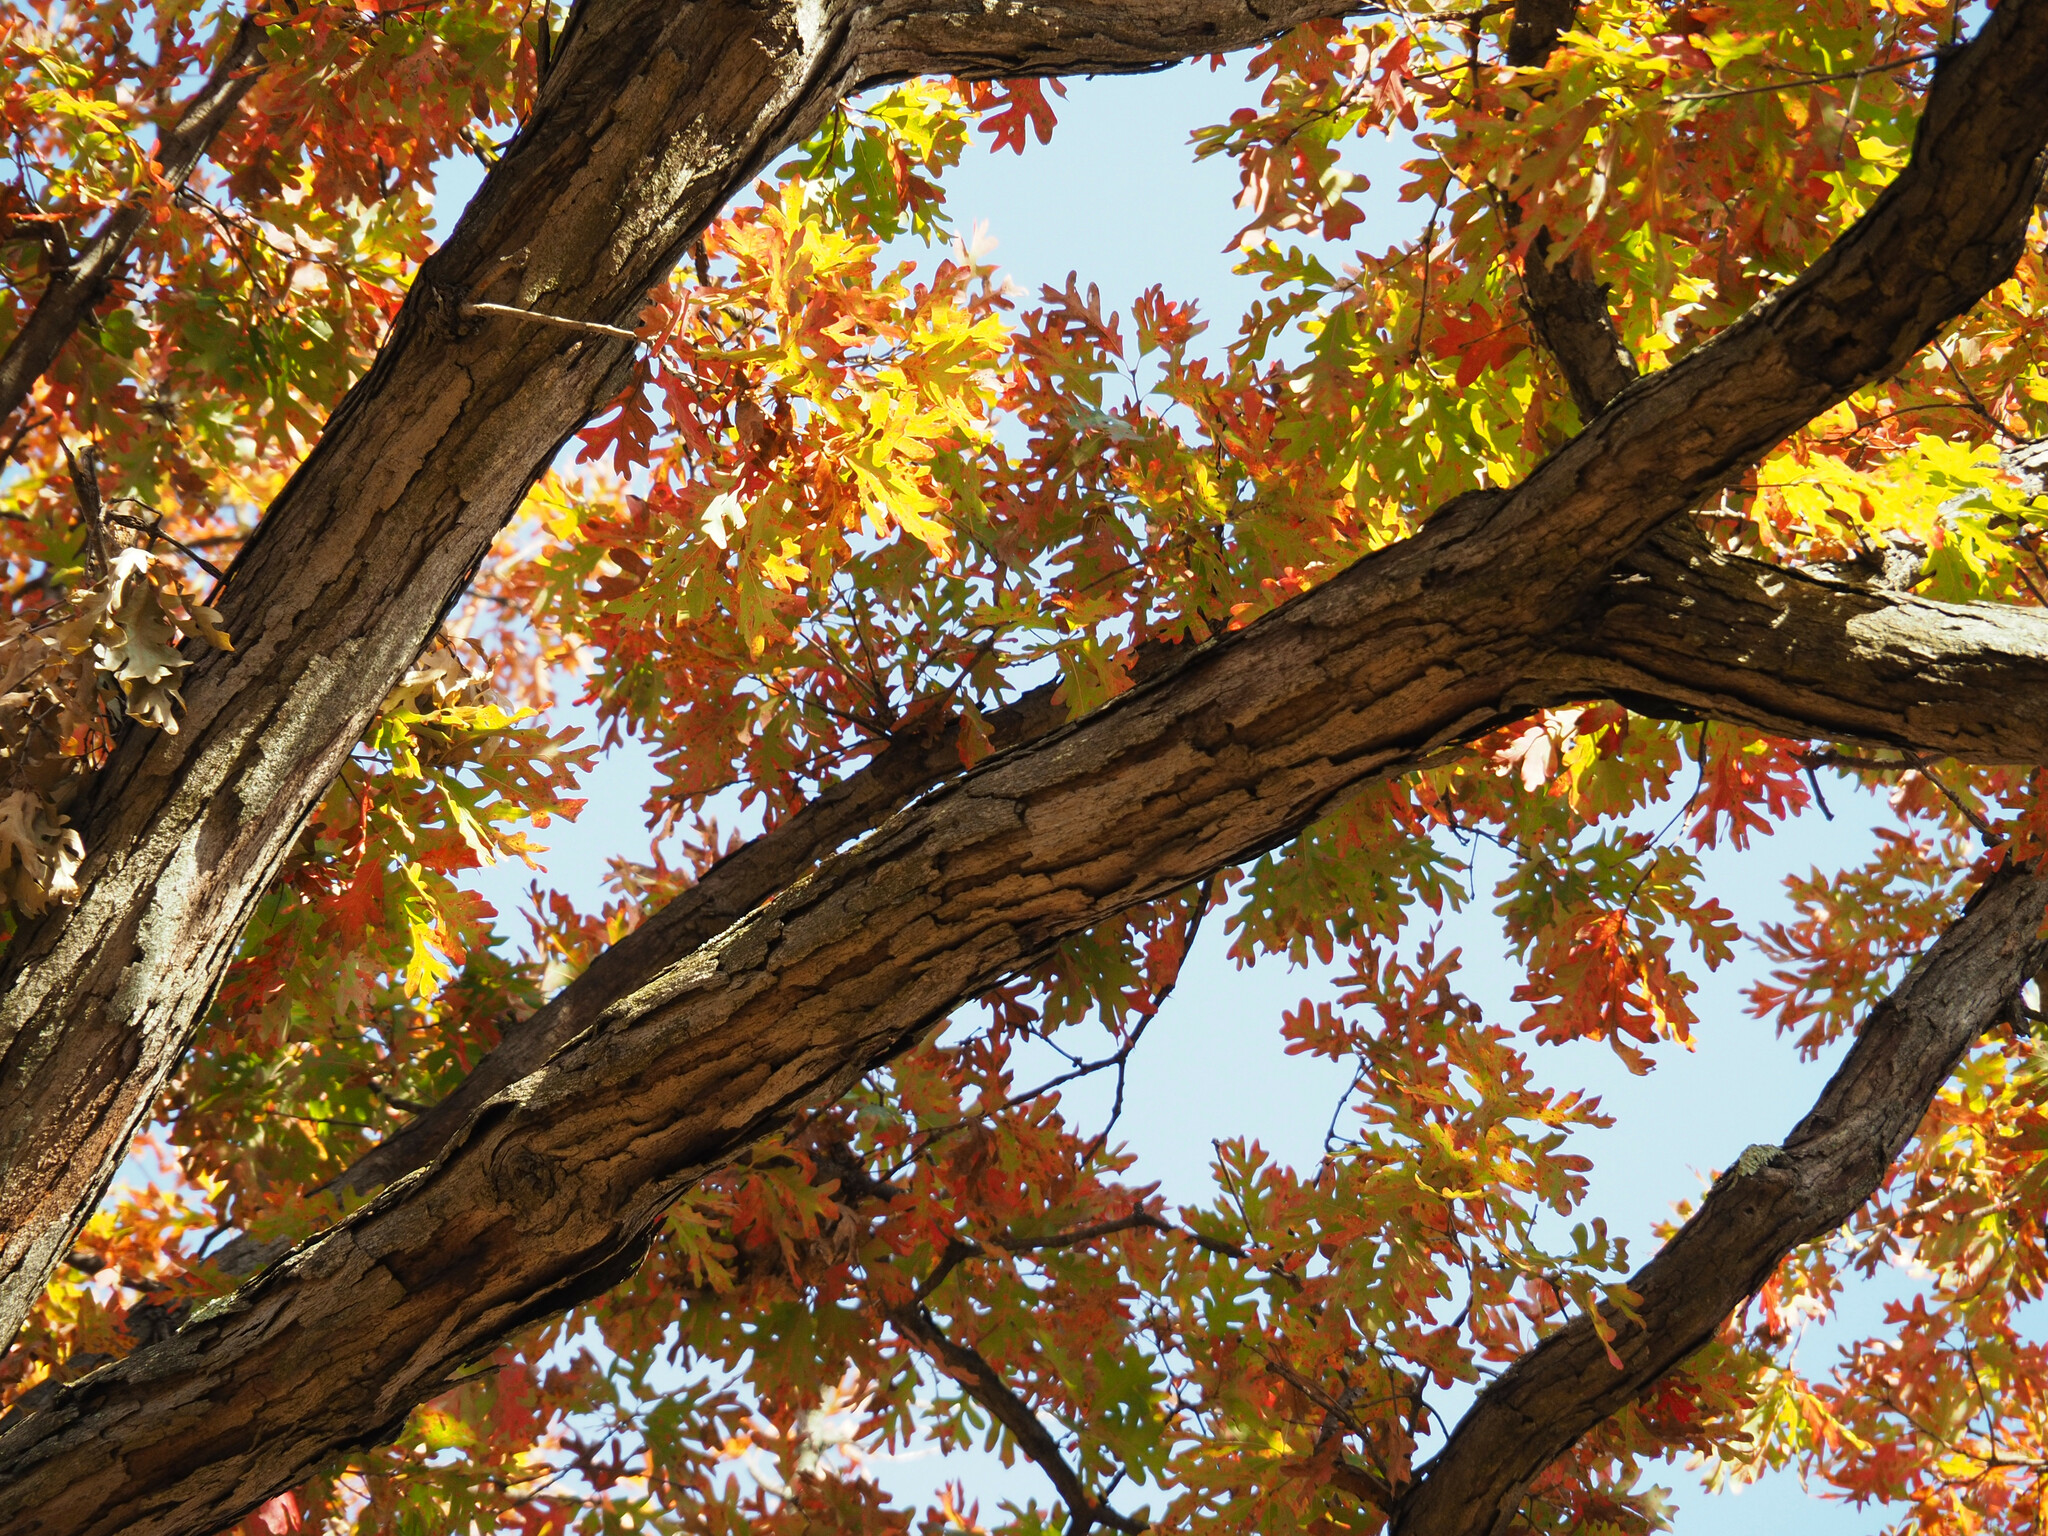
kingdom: Plantae
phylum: Tracheophyta
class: Magnoliopsida
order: Fagales
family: Fagaceae
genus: Quercus
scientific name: Quercus alba
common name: White oak
